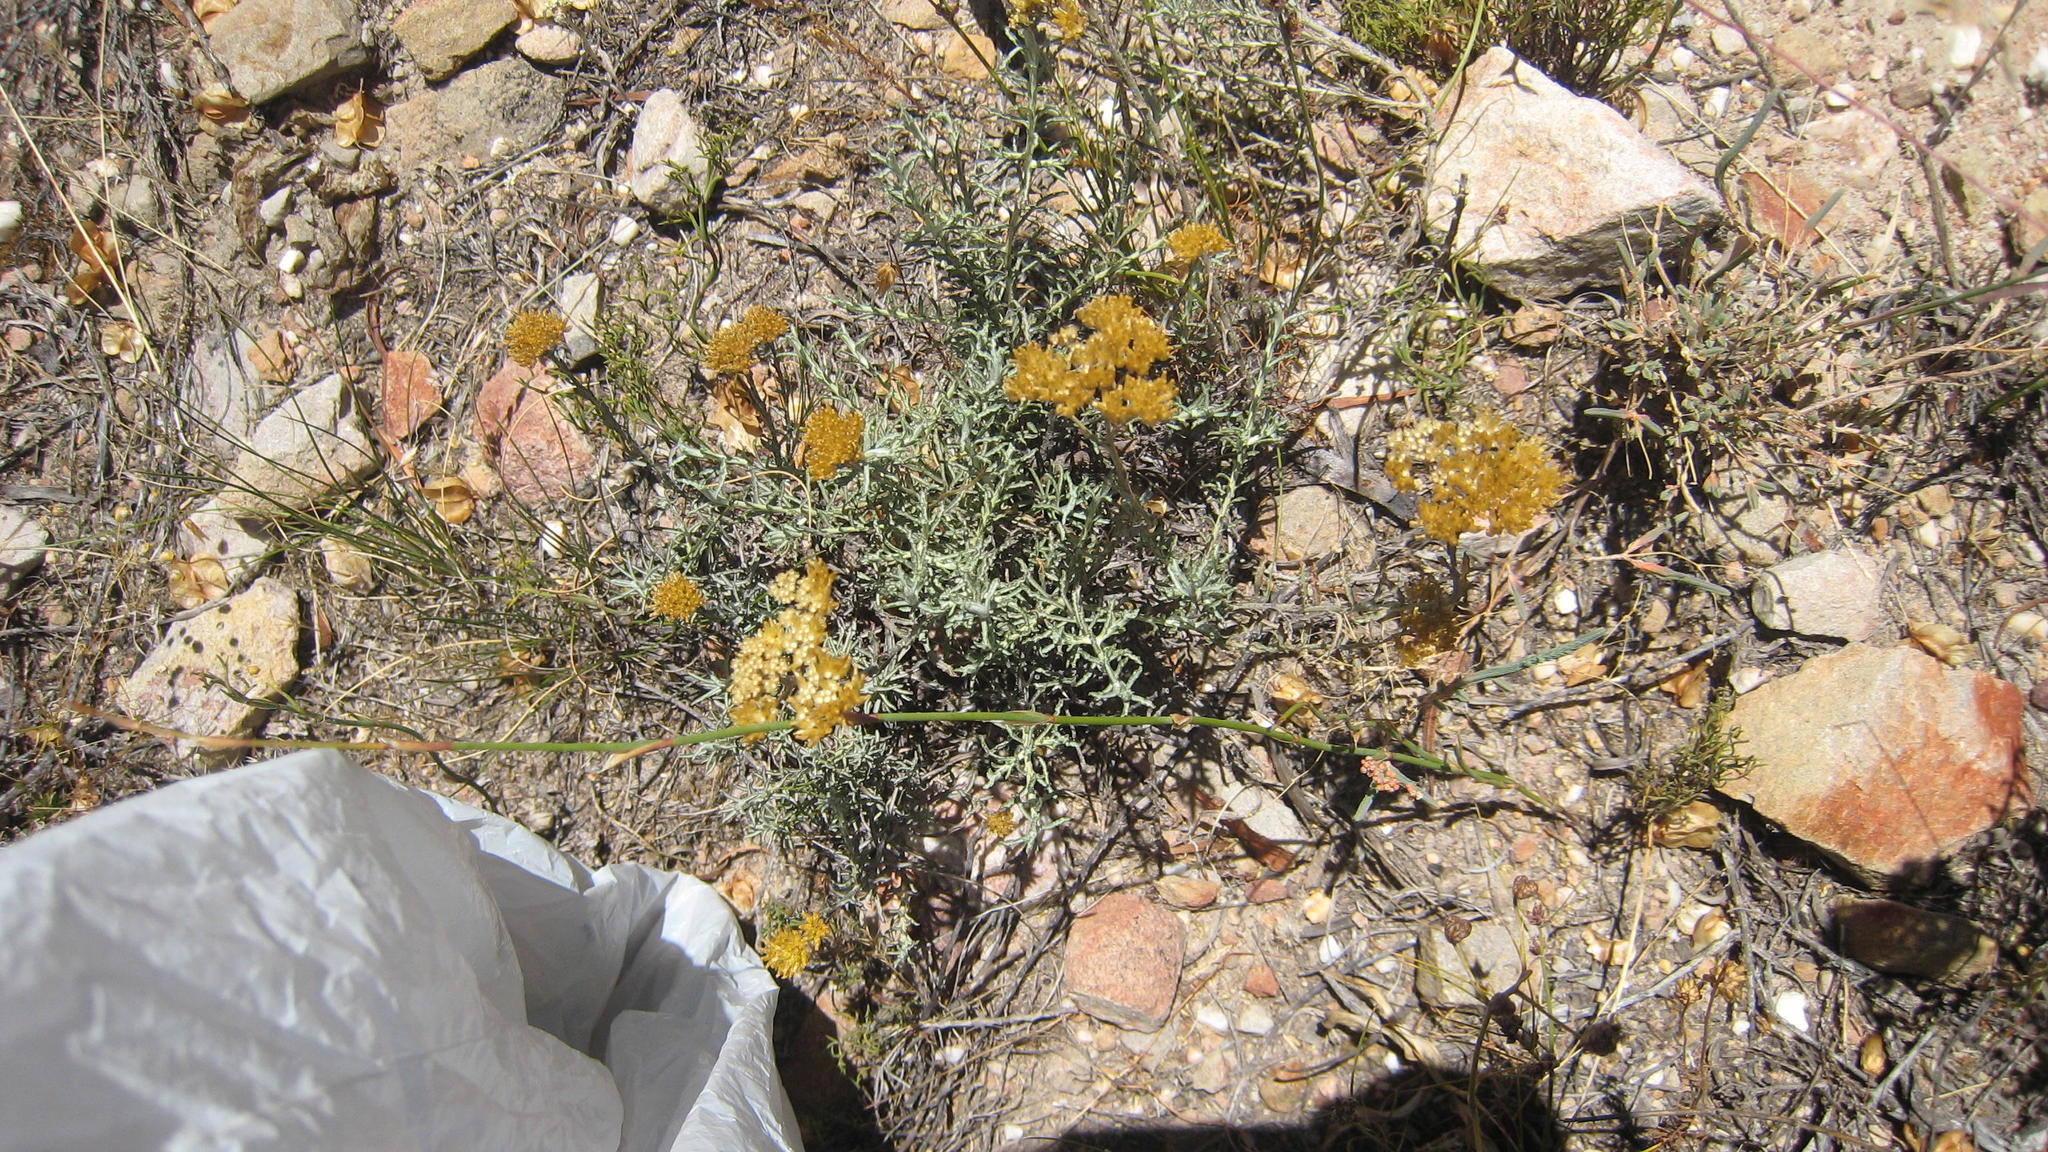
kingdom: Plantae
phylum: Tracheophyta
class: Magnoliopsida
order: Asterales
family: Asteraceae
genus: Helichrysum
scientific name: Helichrysum rutilans
